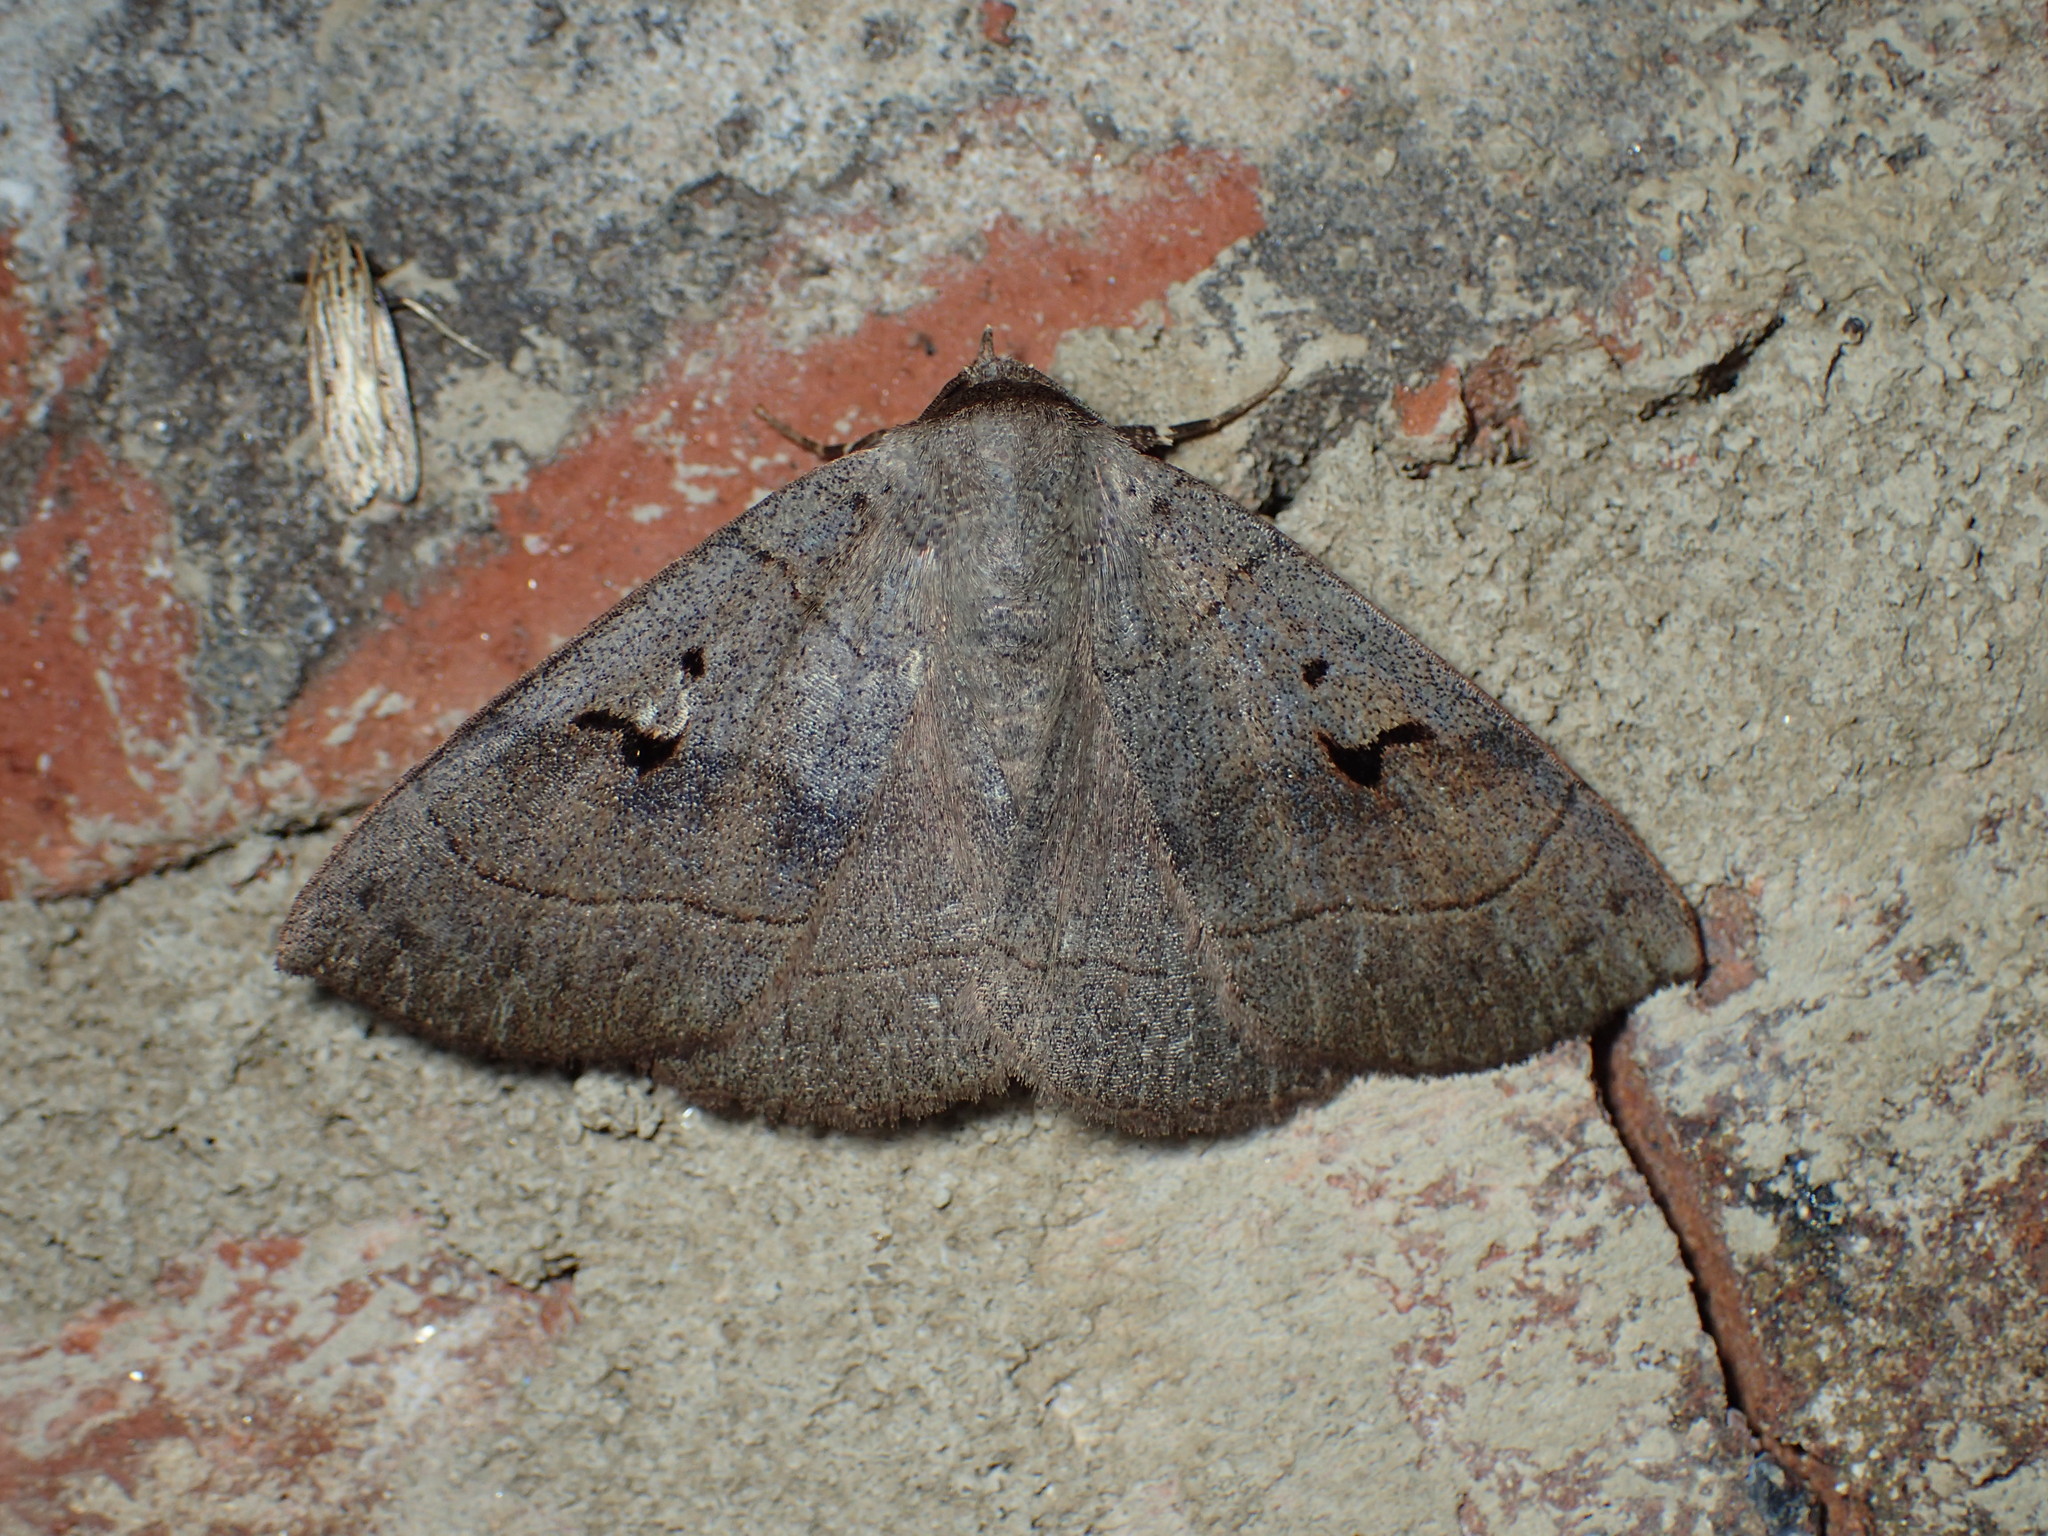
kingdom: Animalia
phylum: Arthropoda
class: Insecta
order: Lepidoptera
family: Erebidae
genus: Panopoda
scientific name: Panopoda carneicosta
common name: Brown panopoda moth
